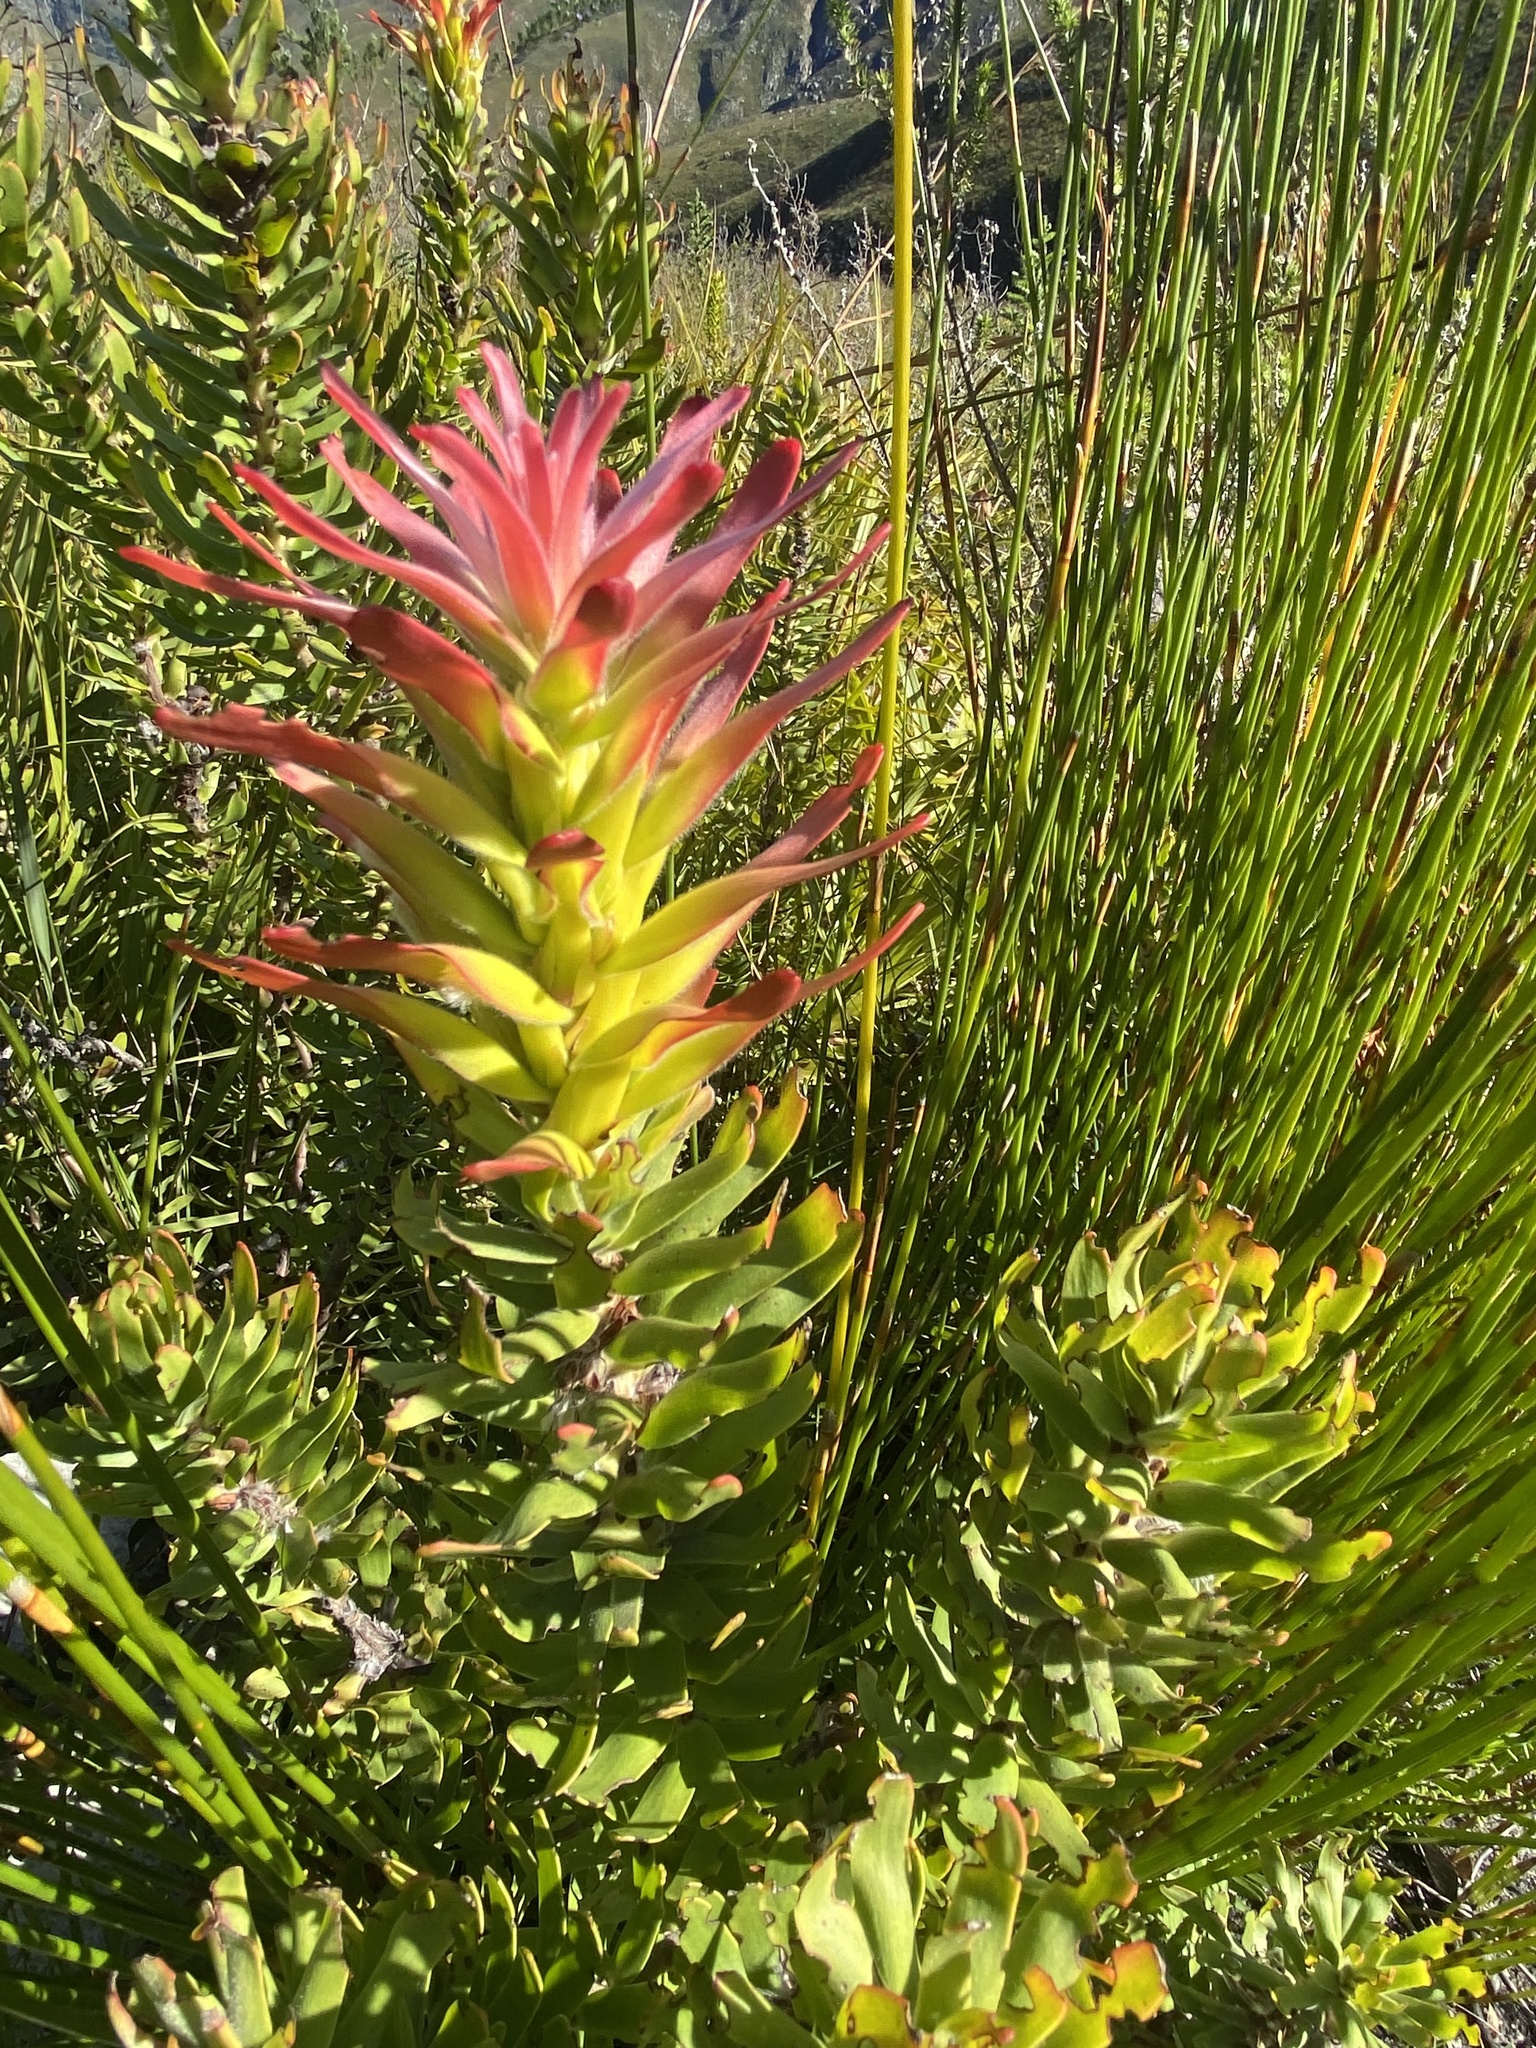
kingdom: Plantae
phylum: Tracheophyta
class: Magnoliopsida
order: Proteales
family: Proteaceae
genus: Mimetes
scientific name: Mimetes cucullatus
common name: Common pagoda
